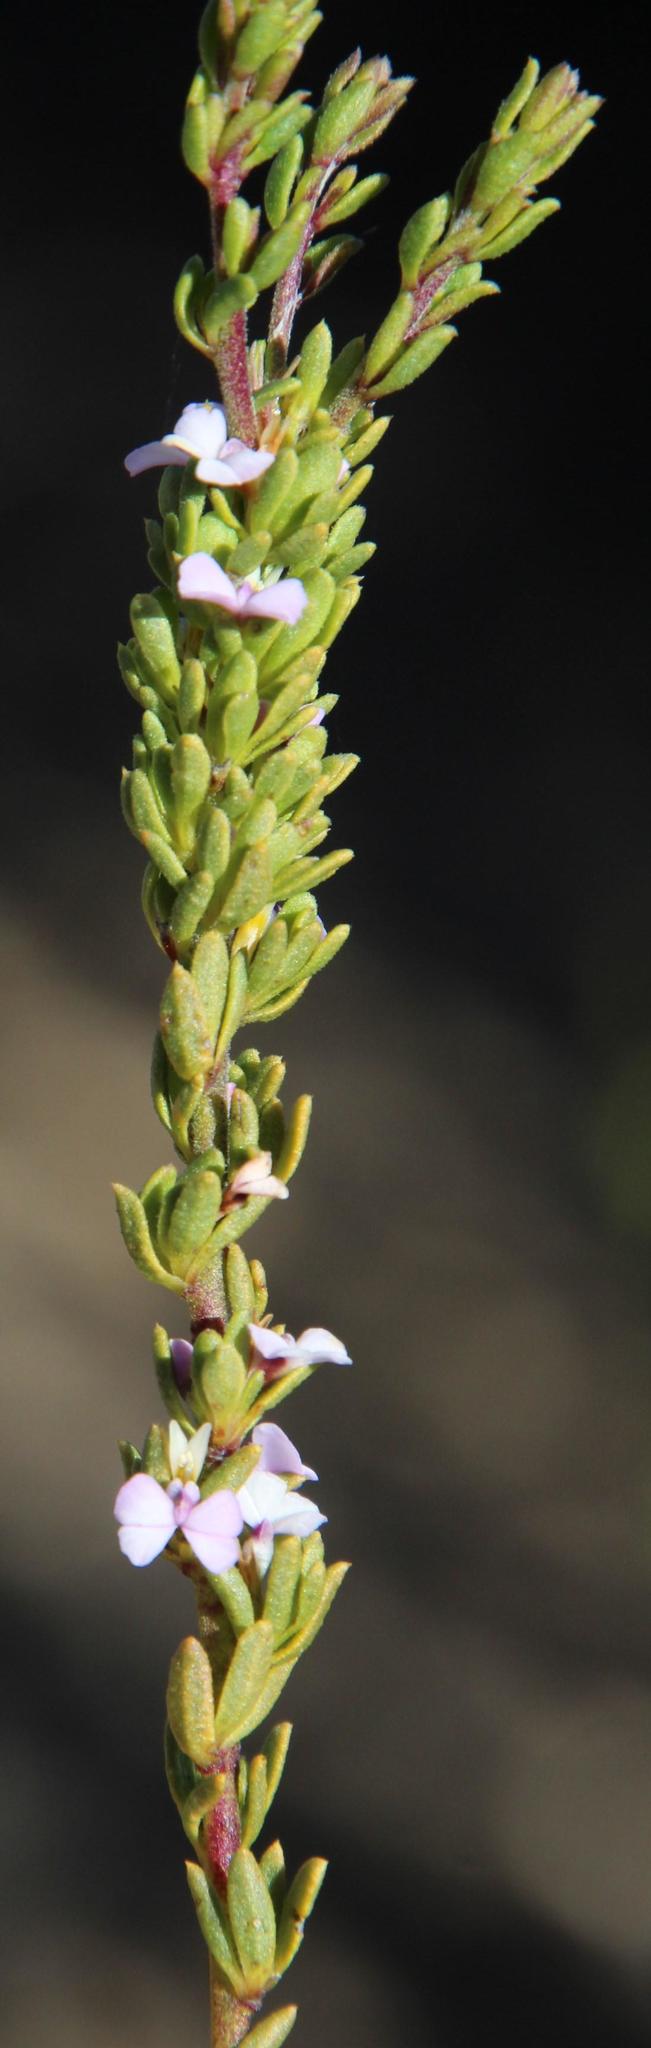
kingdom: Plantae
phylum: Tracheophyta
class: Magnoliopsida
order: Fabales
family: Polygalaceae
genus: Muraltia
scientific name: Muraltia rhamnoides
